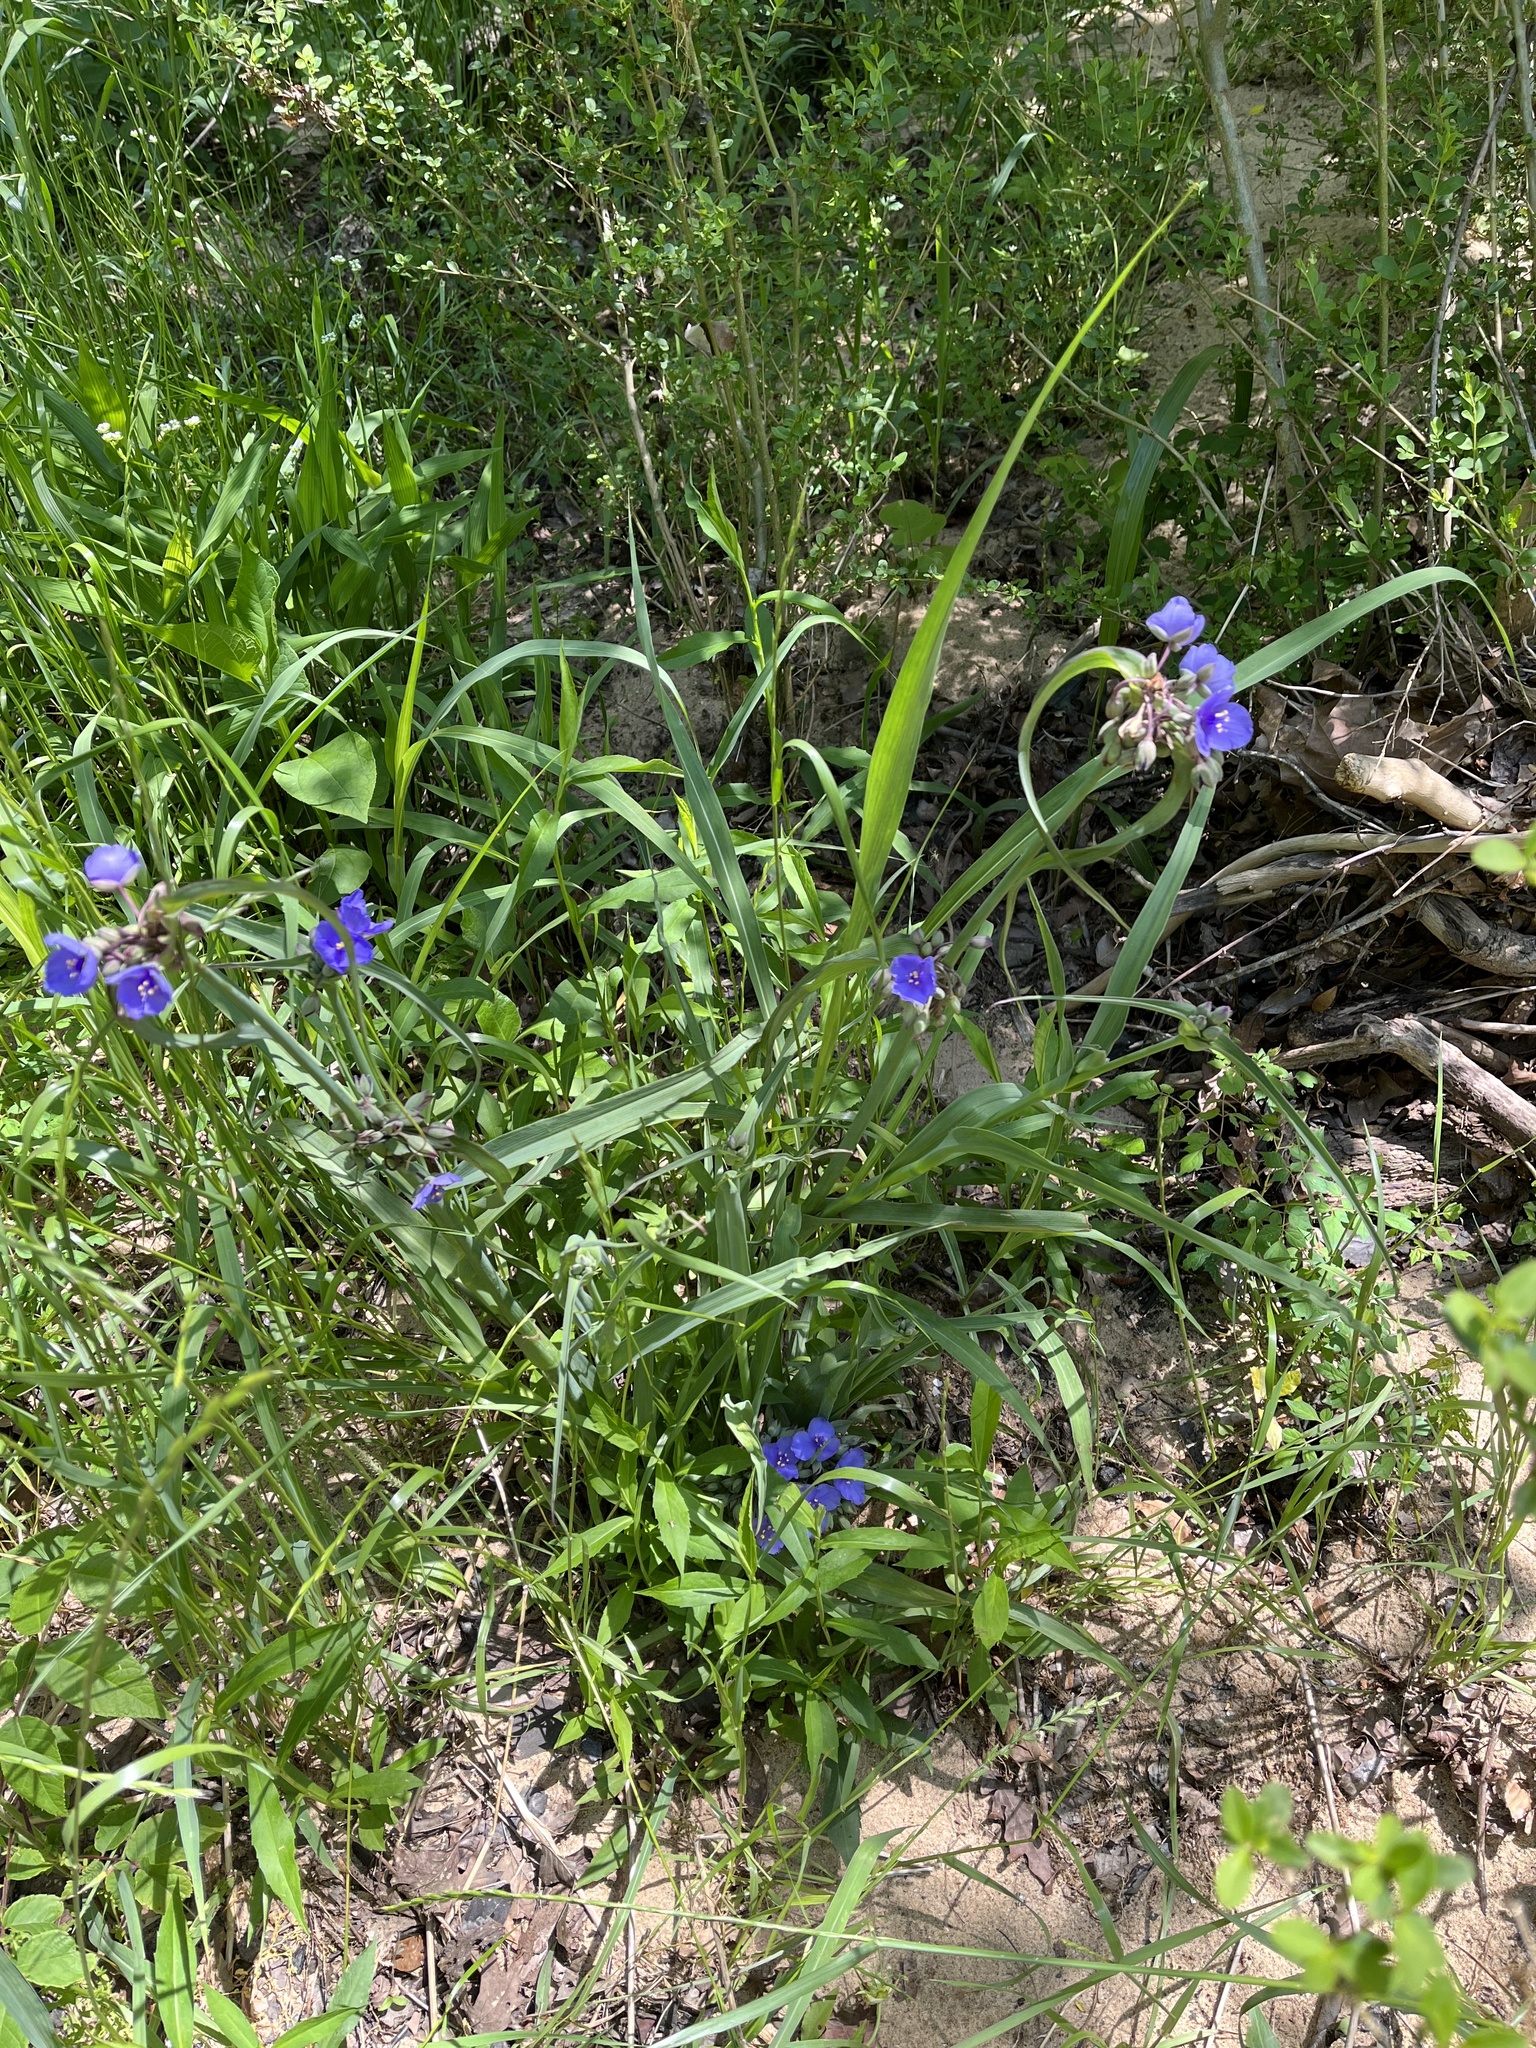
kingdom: Plantae
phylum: Tracheophyta
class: Liliopsida
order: Commelinales
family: Commelinaceae
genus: Tradescantia
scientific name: Tradescantia ohiensis
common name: Ohio spiderwort
